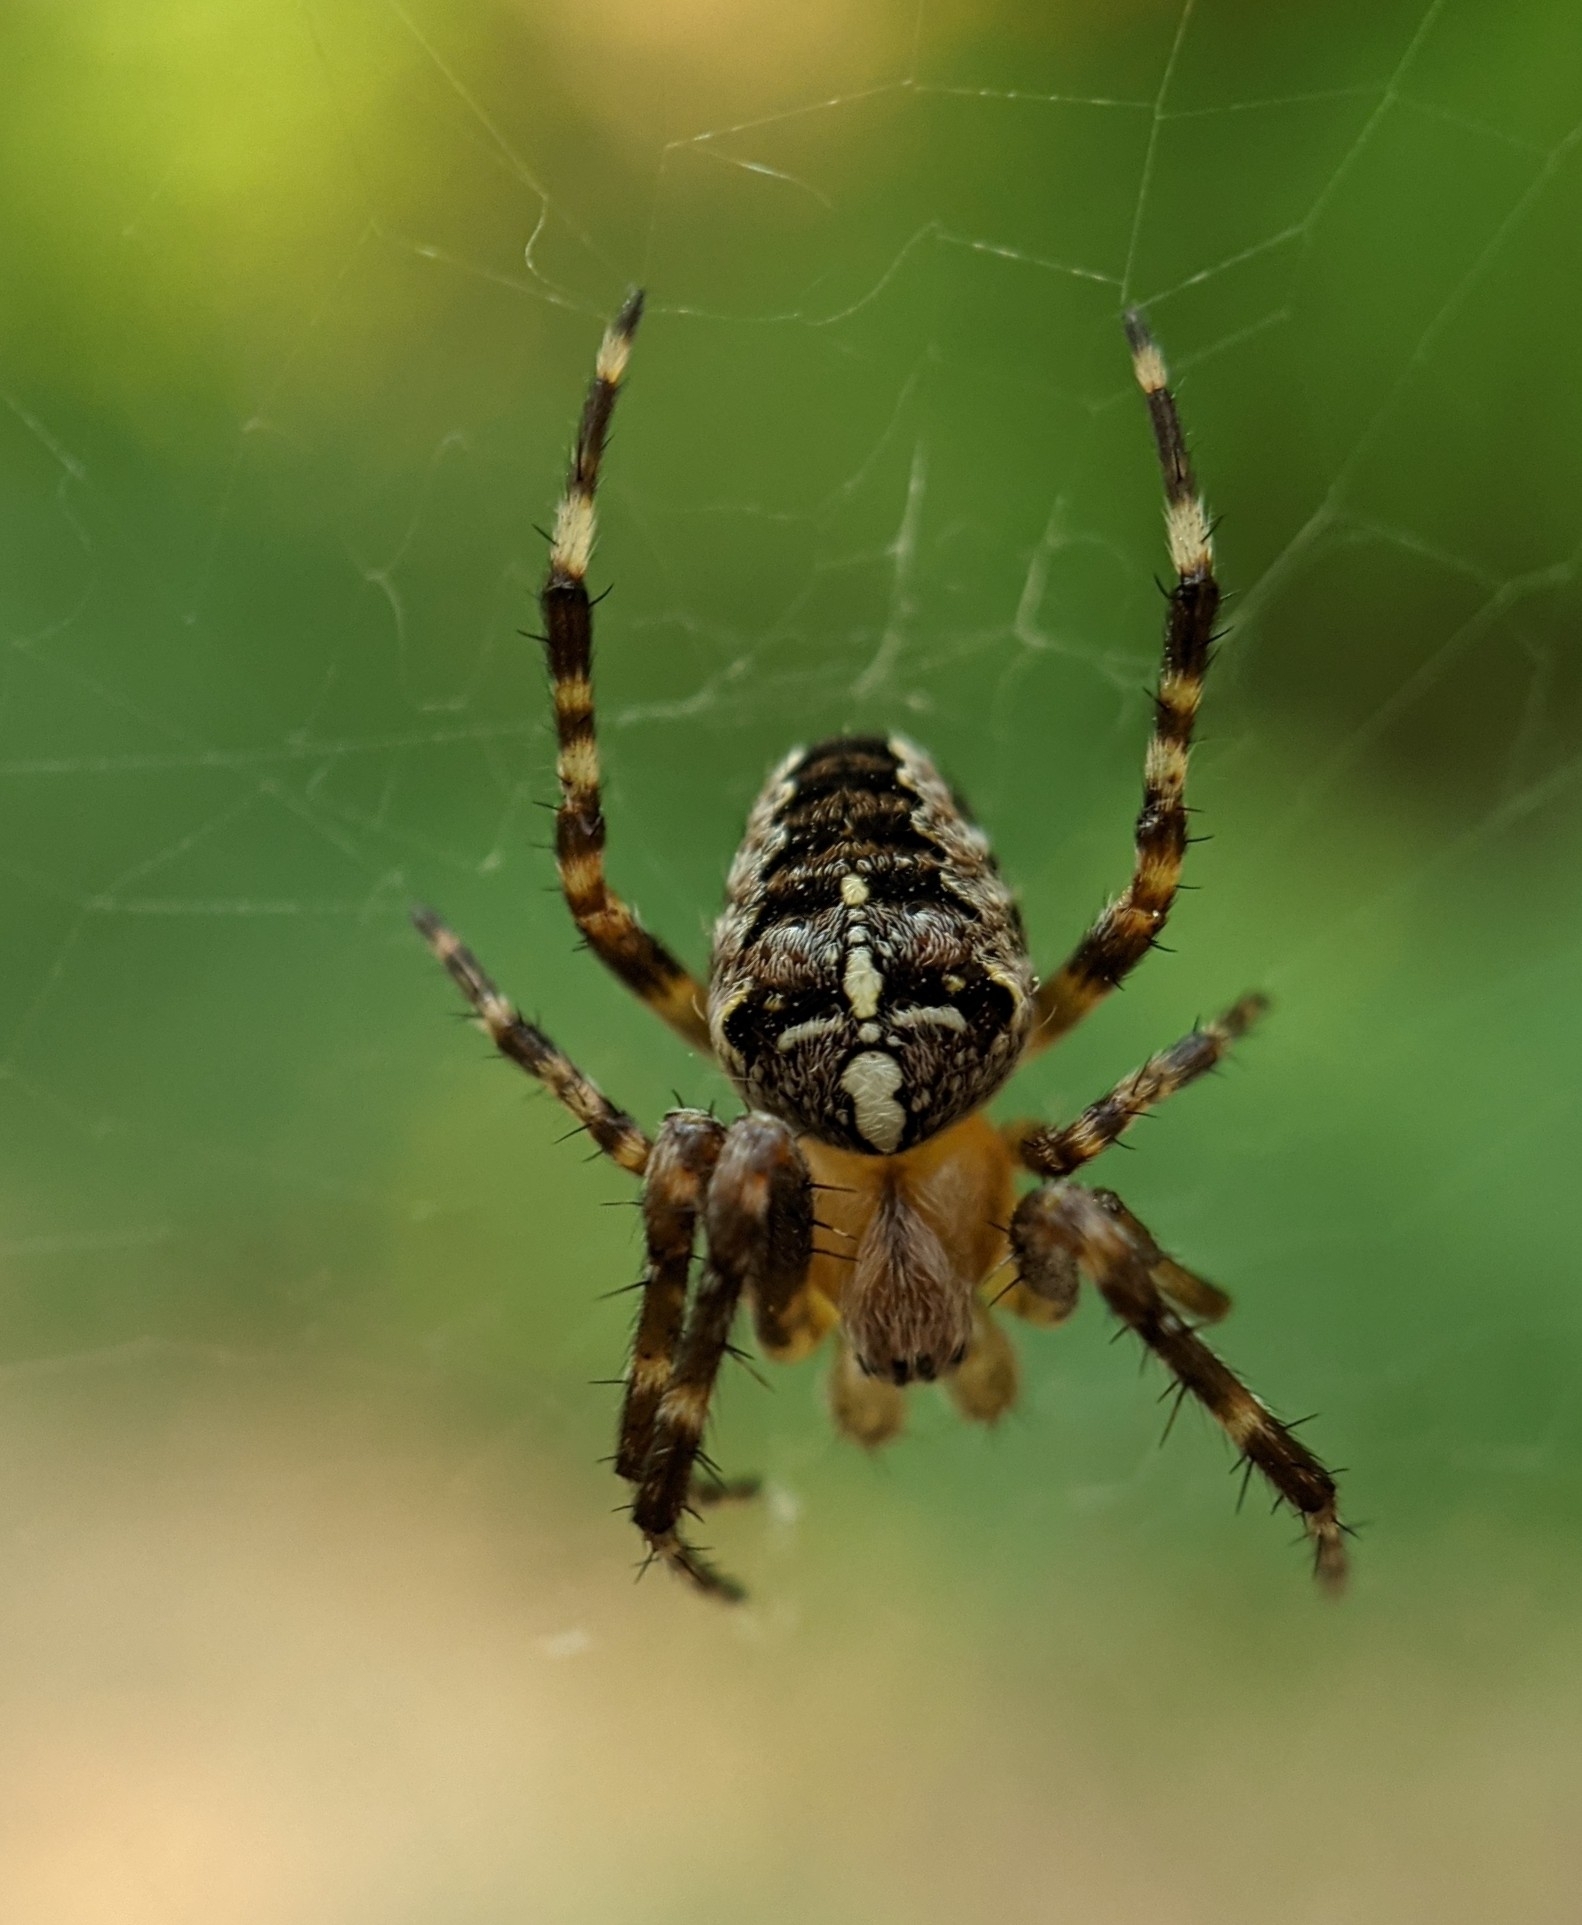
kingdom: Animalia
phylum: Arthropoda
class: Arachnida
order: Araneae
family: Araneidae
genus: Araneus
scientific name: Araneus diadematus
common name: Cross orbweaver
